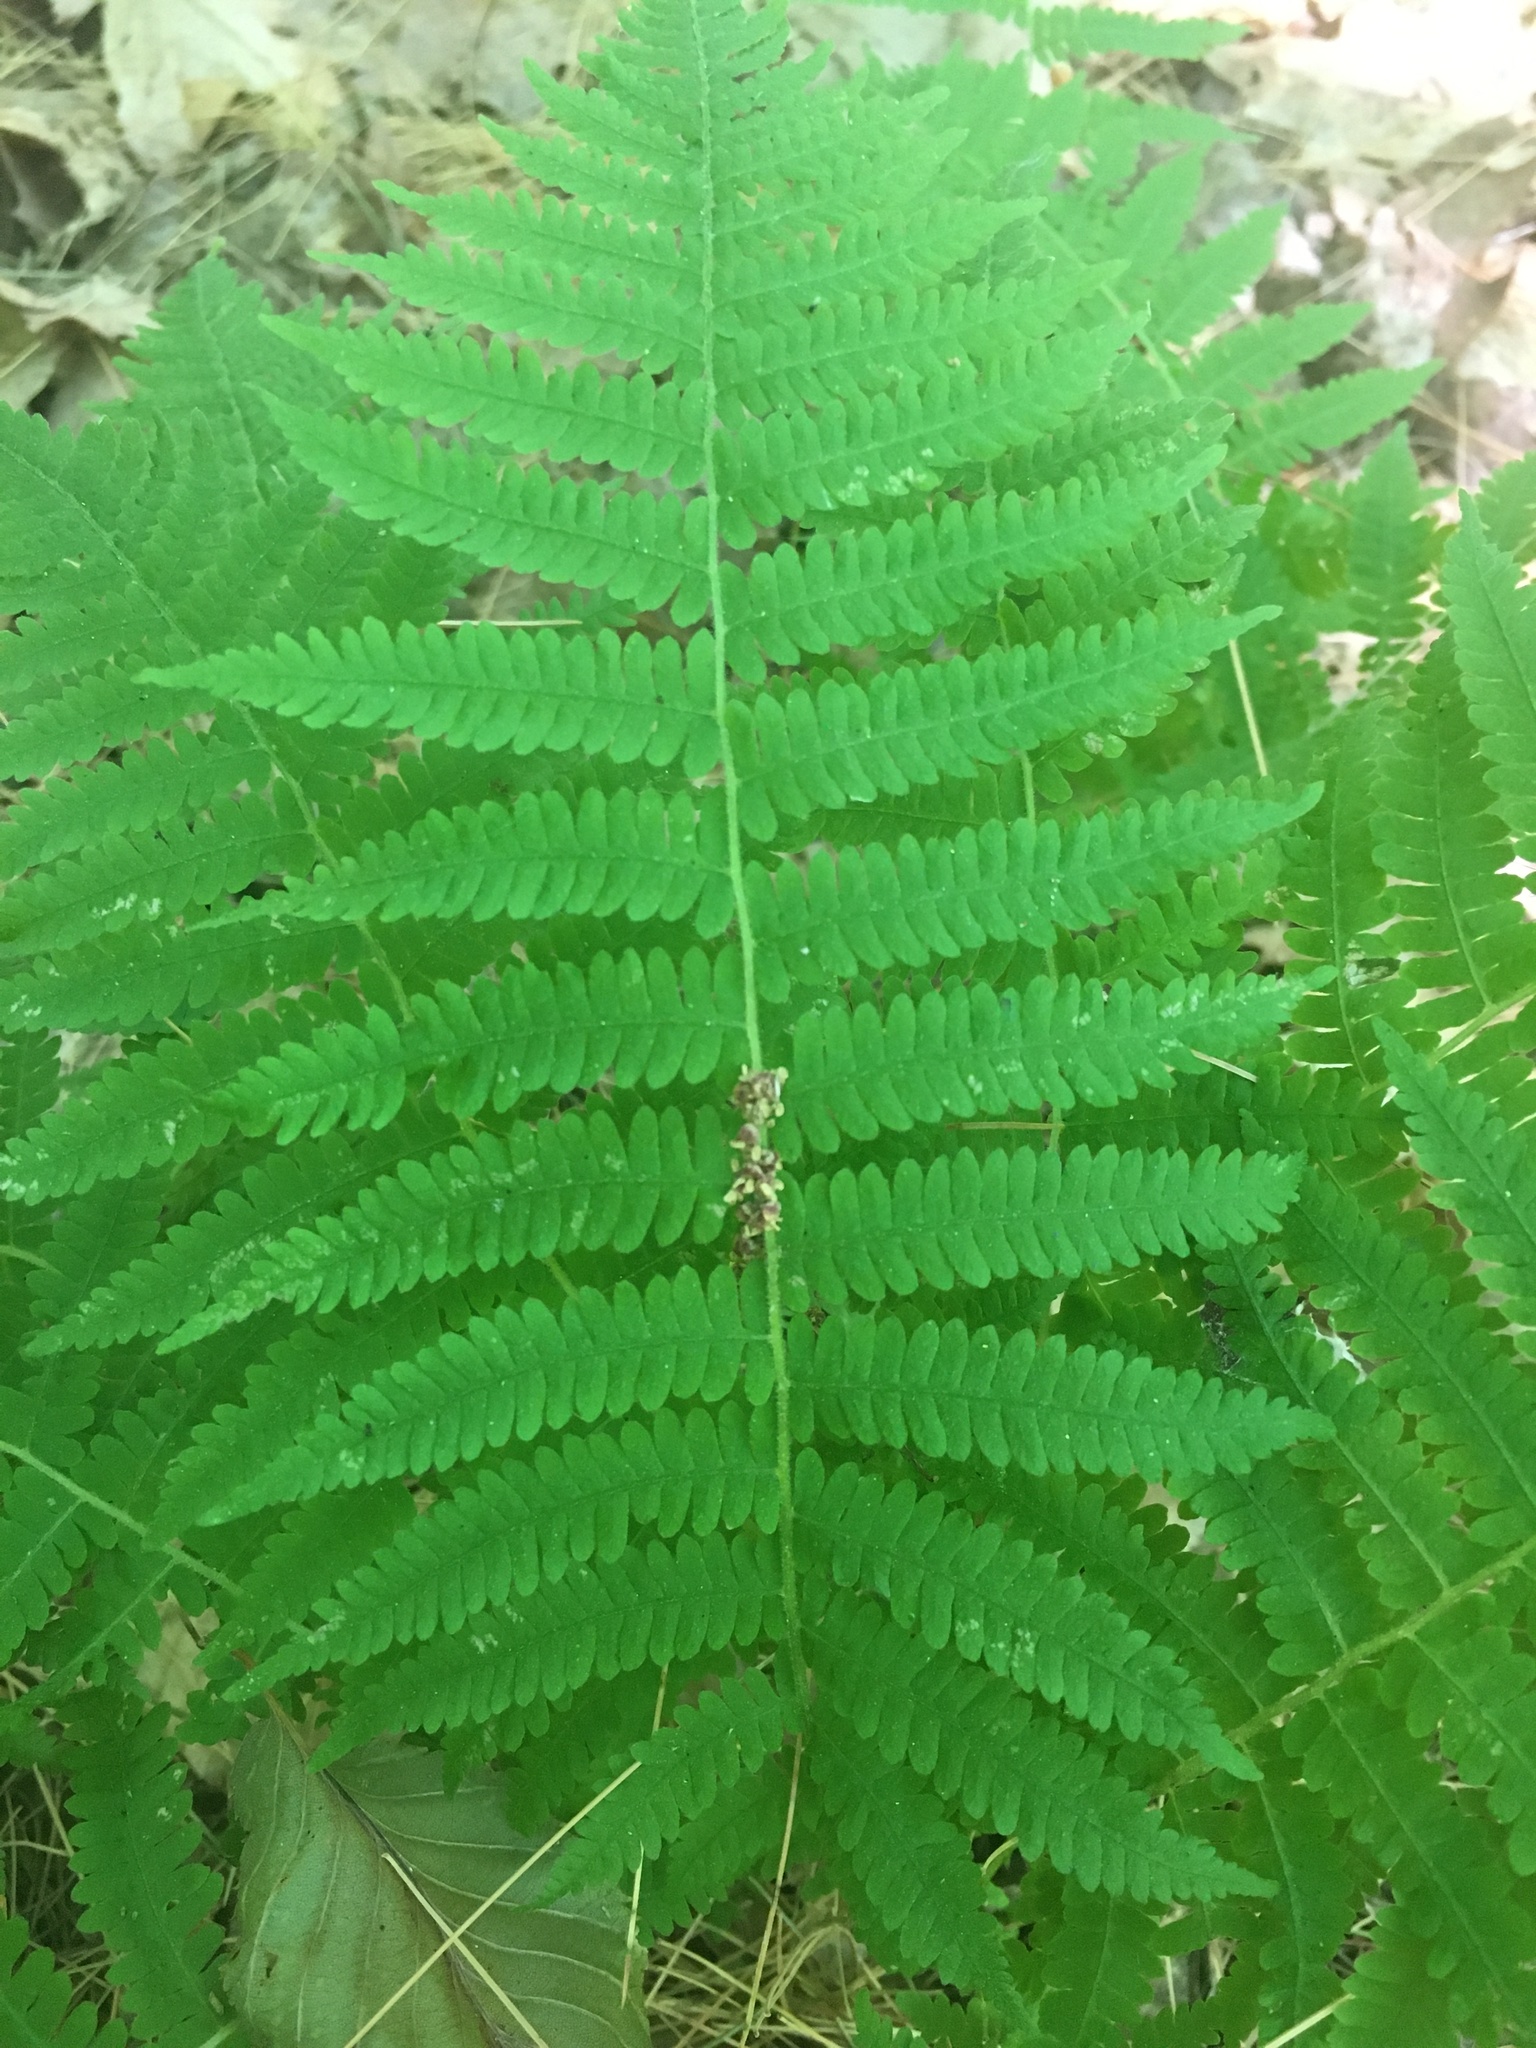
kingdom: Plantae
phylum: Tracheophyta
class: Polypodiopsida
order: Polypodiales
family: Thelypteridaceae
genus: Amauropelta
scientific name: Amauropelta noveboracensis
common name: New york fern
